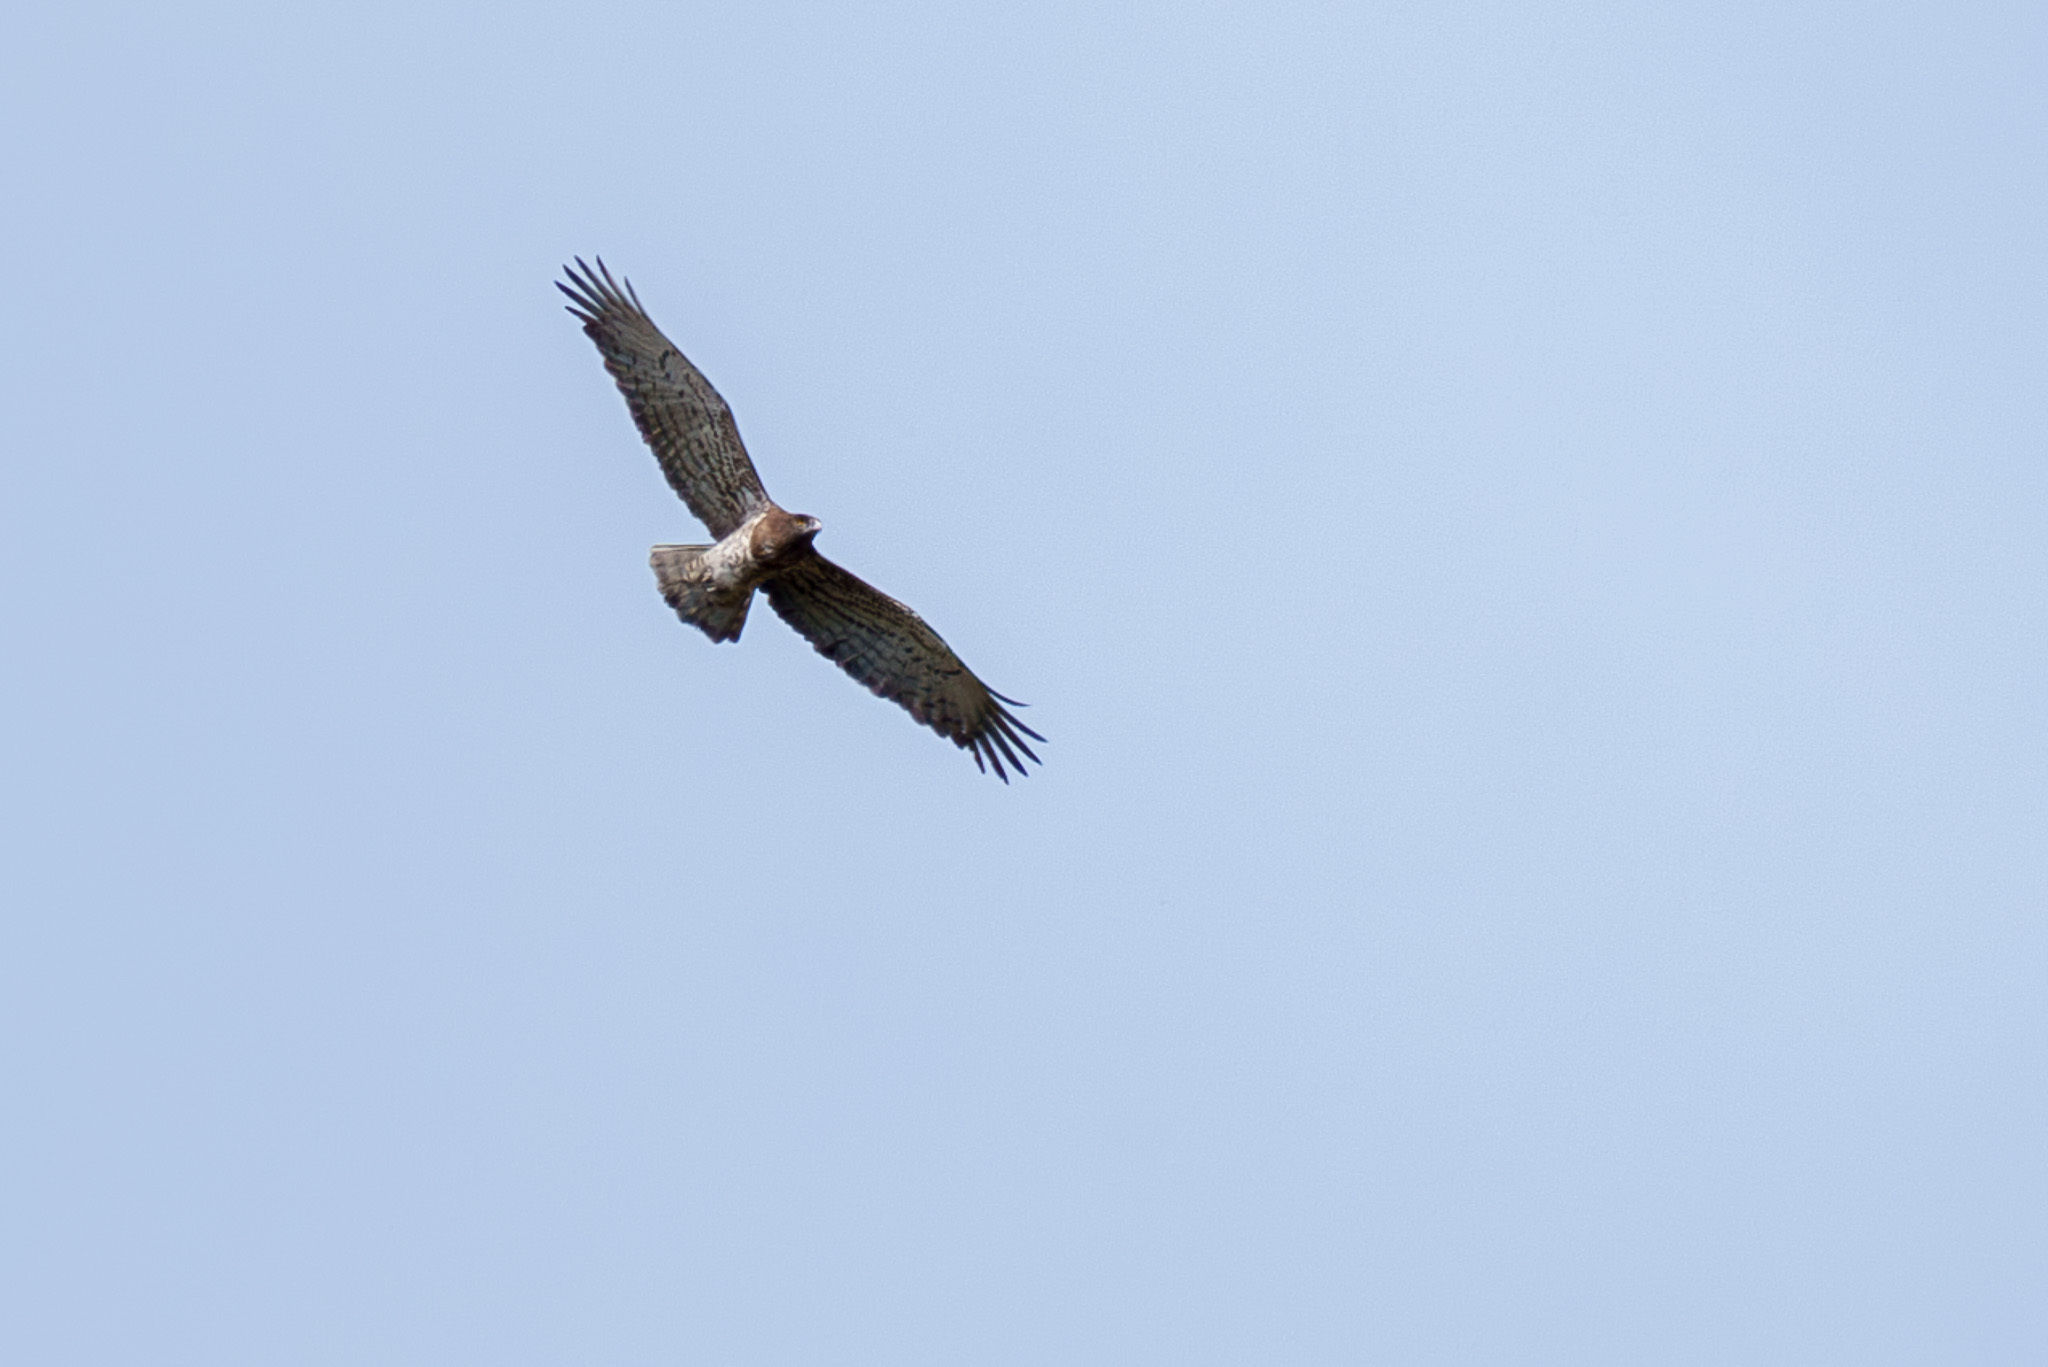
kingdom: Animalia
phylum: Chordata
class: Aves
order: Accipitriformes
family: Accipitridae
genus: Circaetus
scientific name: Circaetus gallicus
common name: Short-toed snake eagle
